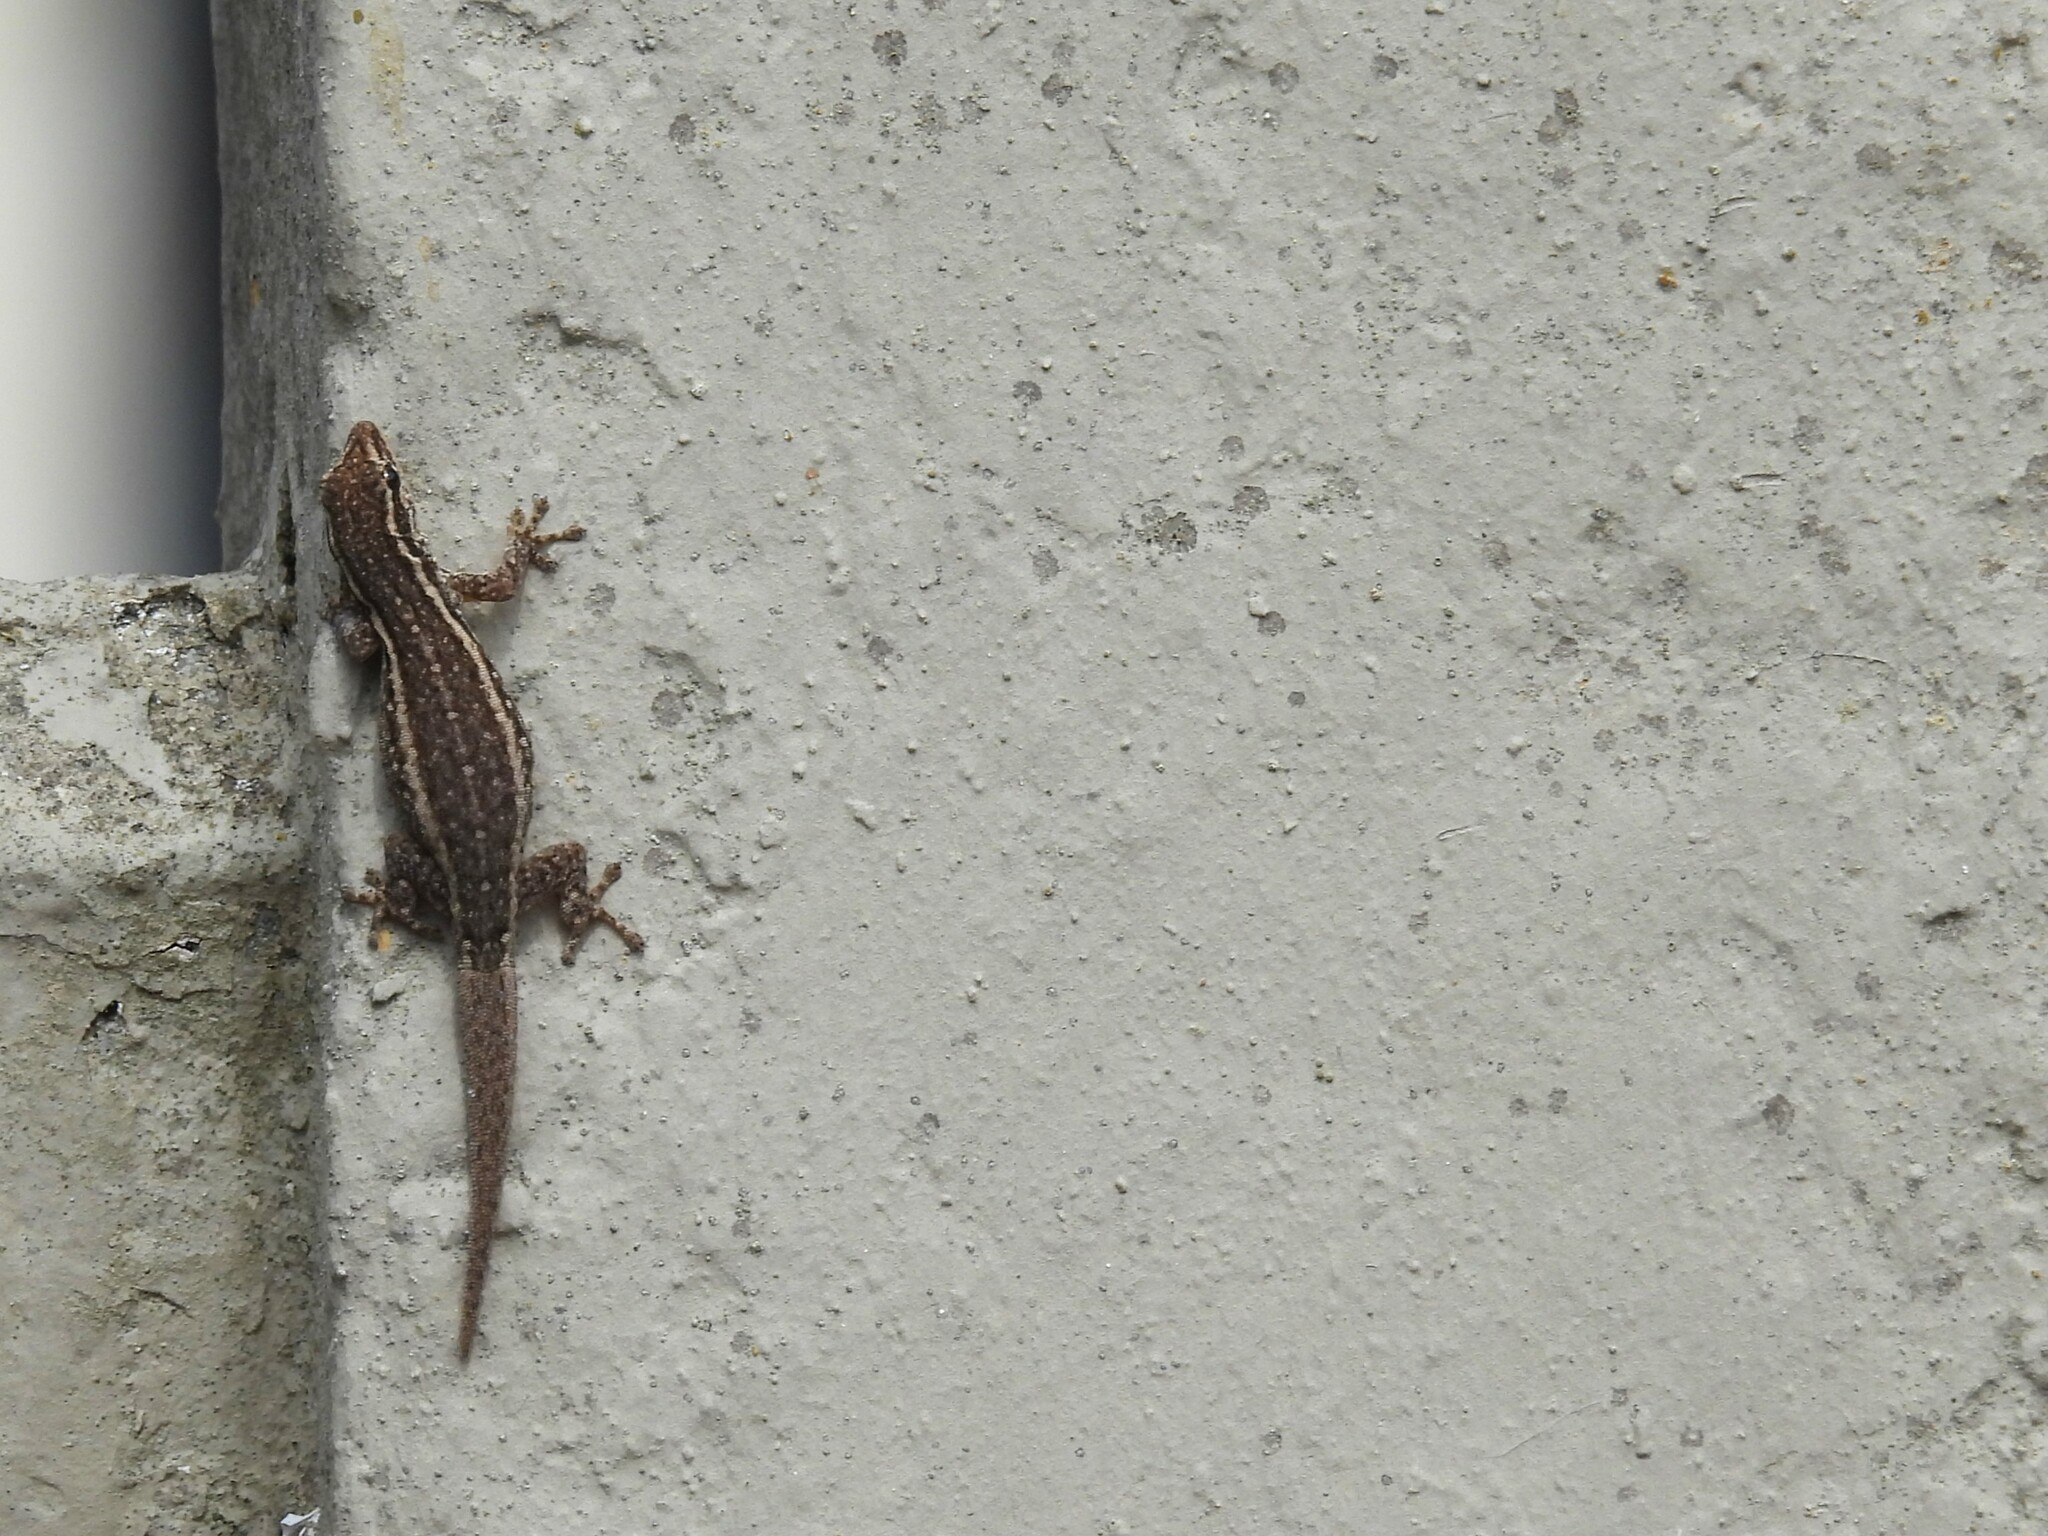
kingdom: Animalia
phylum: Chordata
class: Squamata
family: Gekkonidae
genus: Lygodactylus
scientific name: Lygodactylus capensis
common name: Cape dwarf gecko
